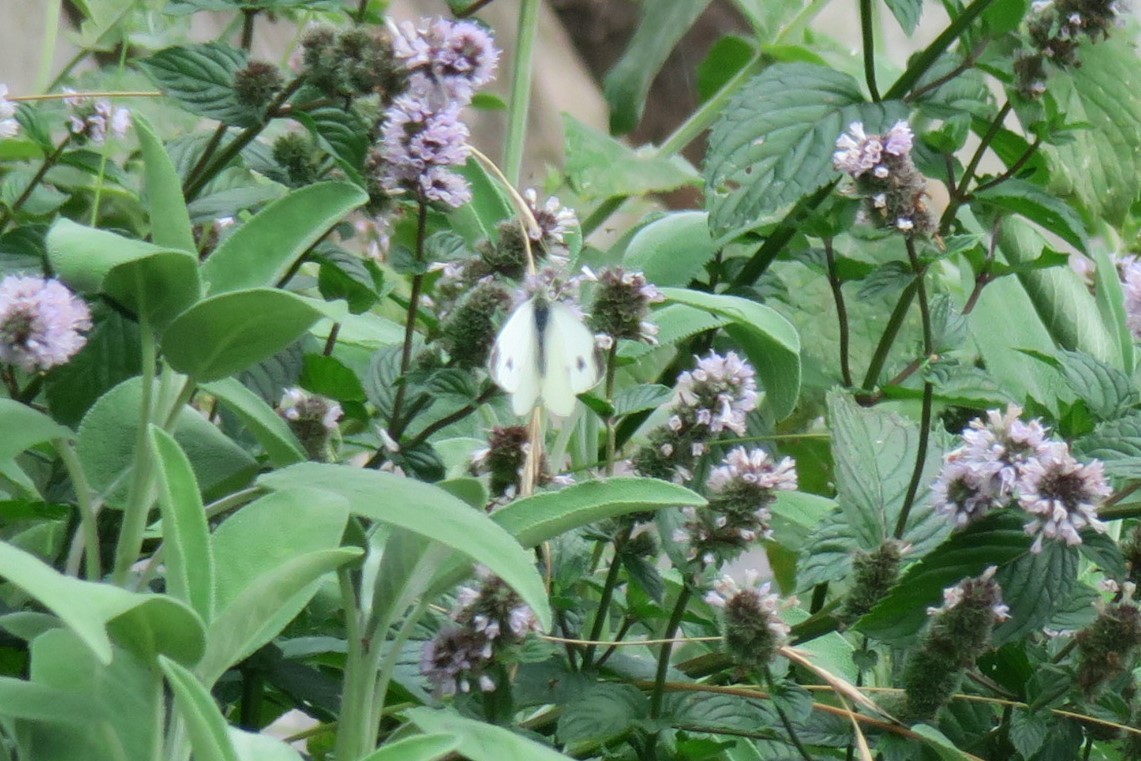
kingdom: Animalia
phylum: Arthropoda
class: Insecta
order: Lepidoptera
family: Pieridae
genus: Pieris
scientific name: Pieris mannii
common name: Southern small white
